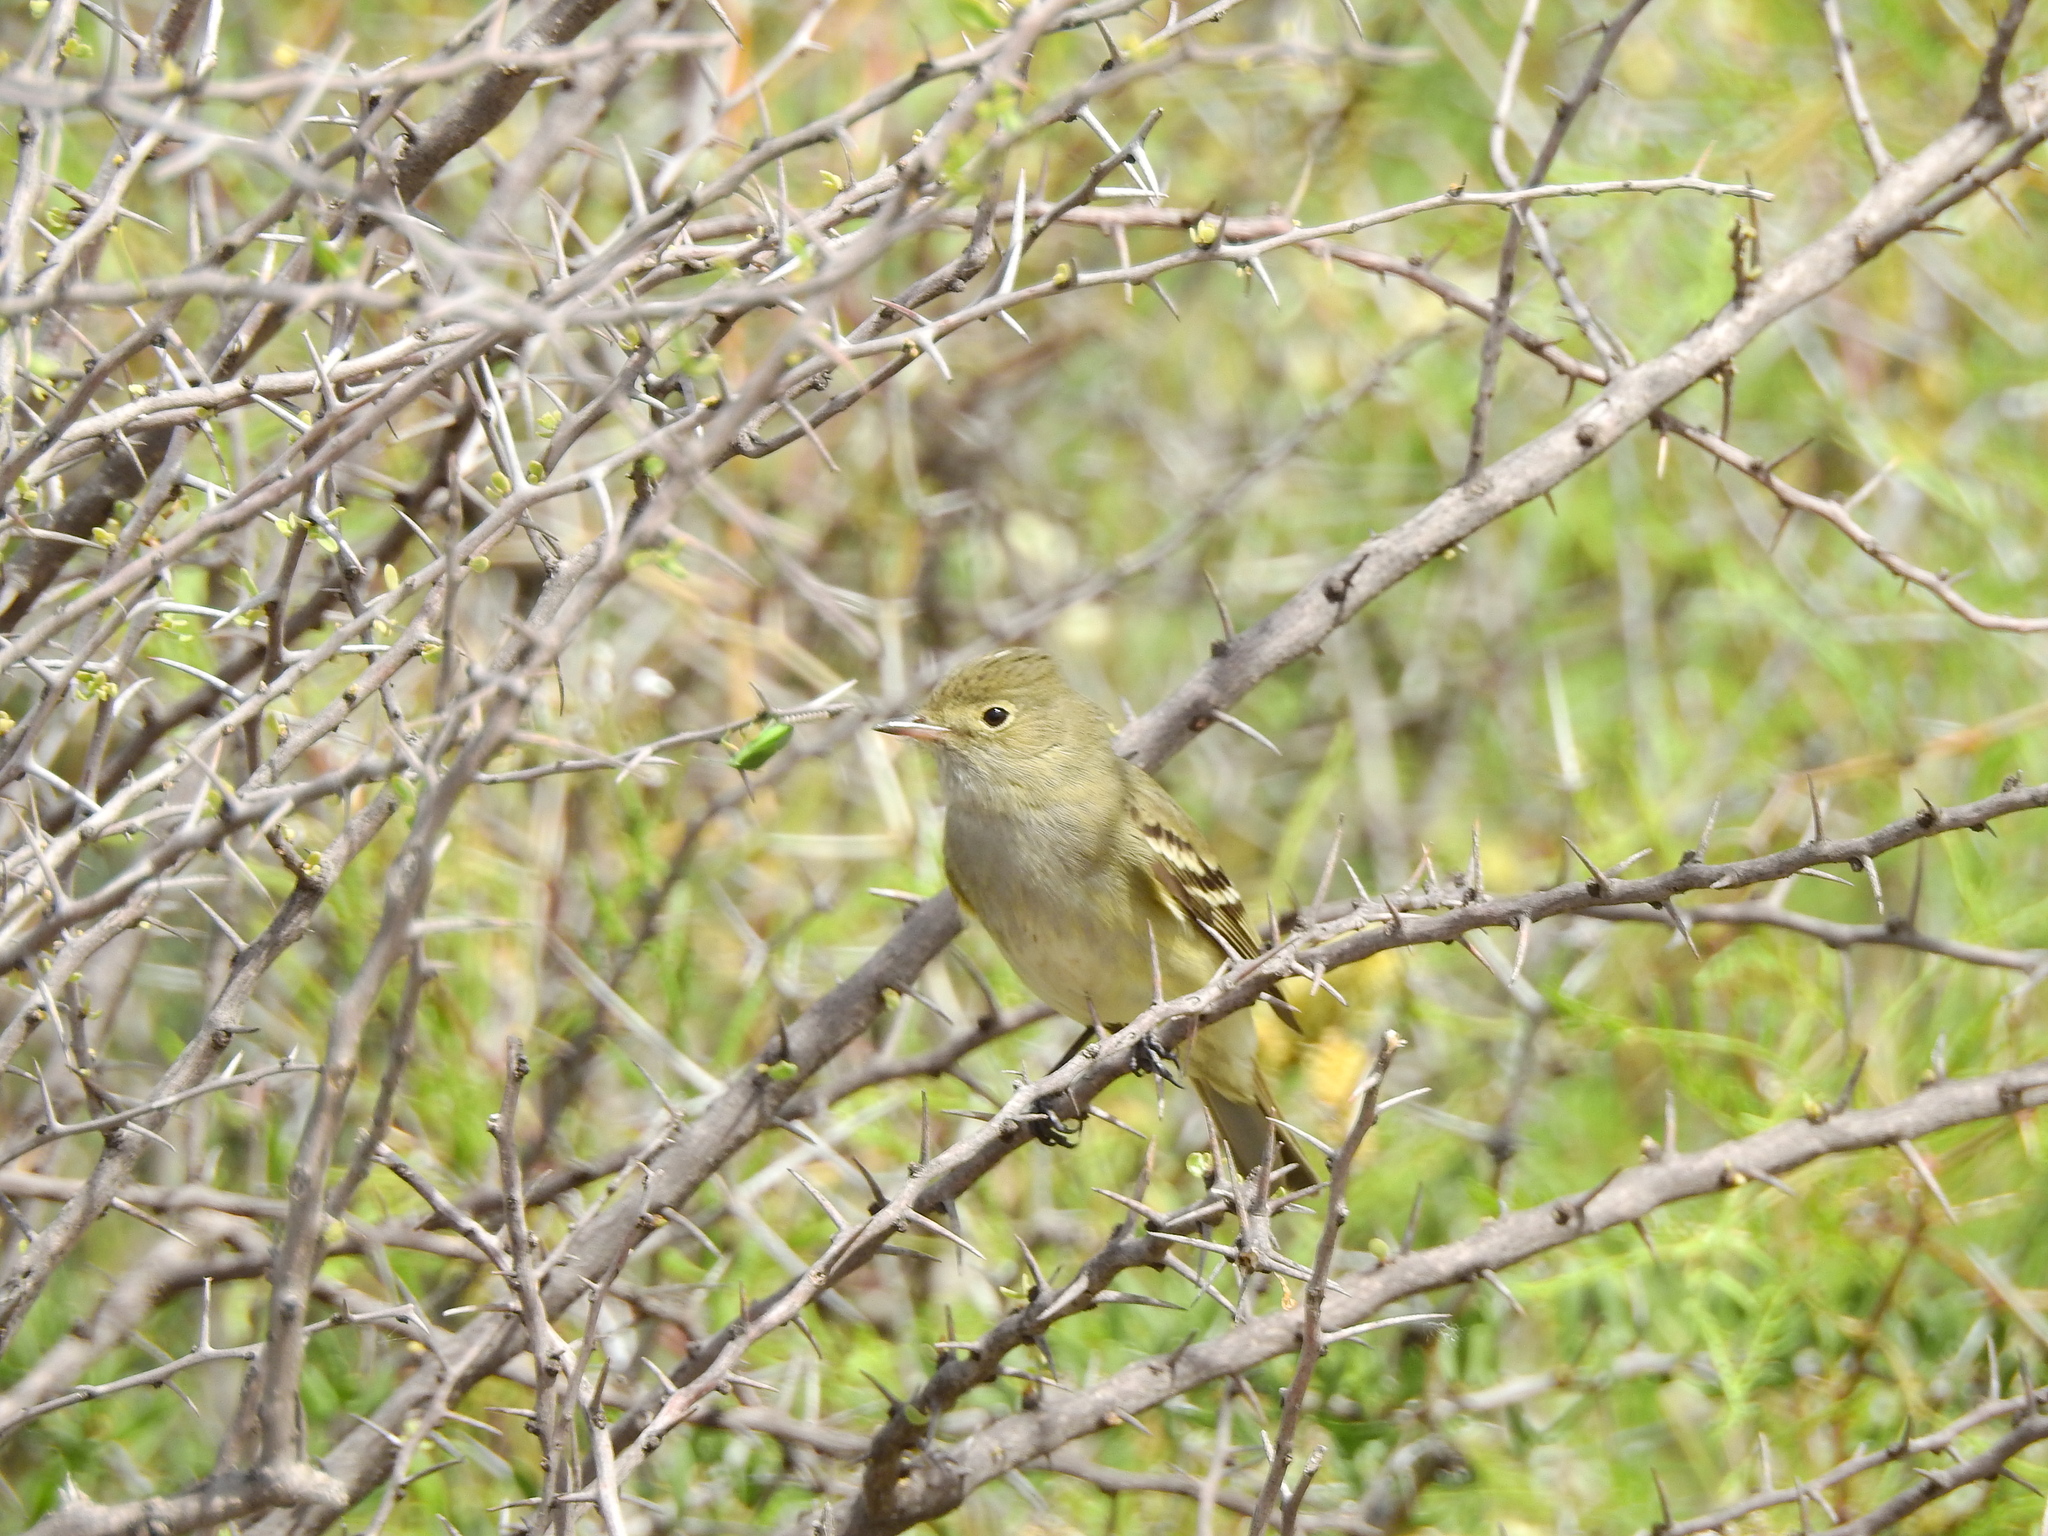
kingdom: Animalia
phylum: Chordata
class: Aves
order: Passeriformes
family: Tyrannidae
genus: Elaenia
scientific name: Elaenia albiceps
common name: White-crested elaenia
